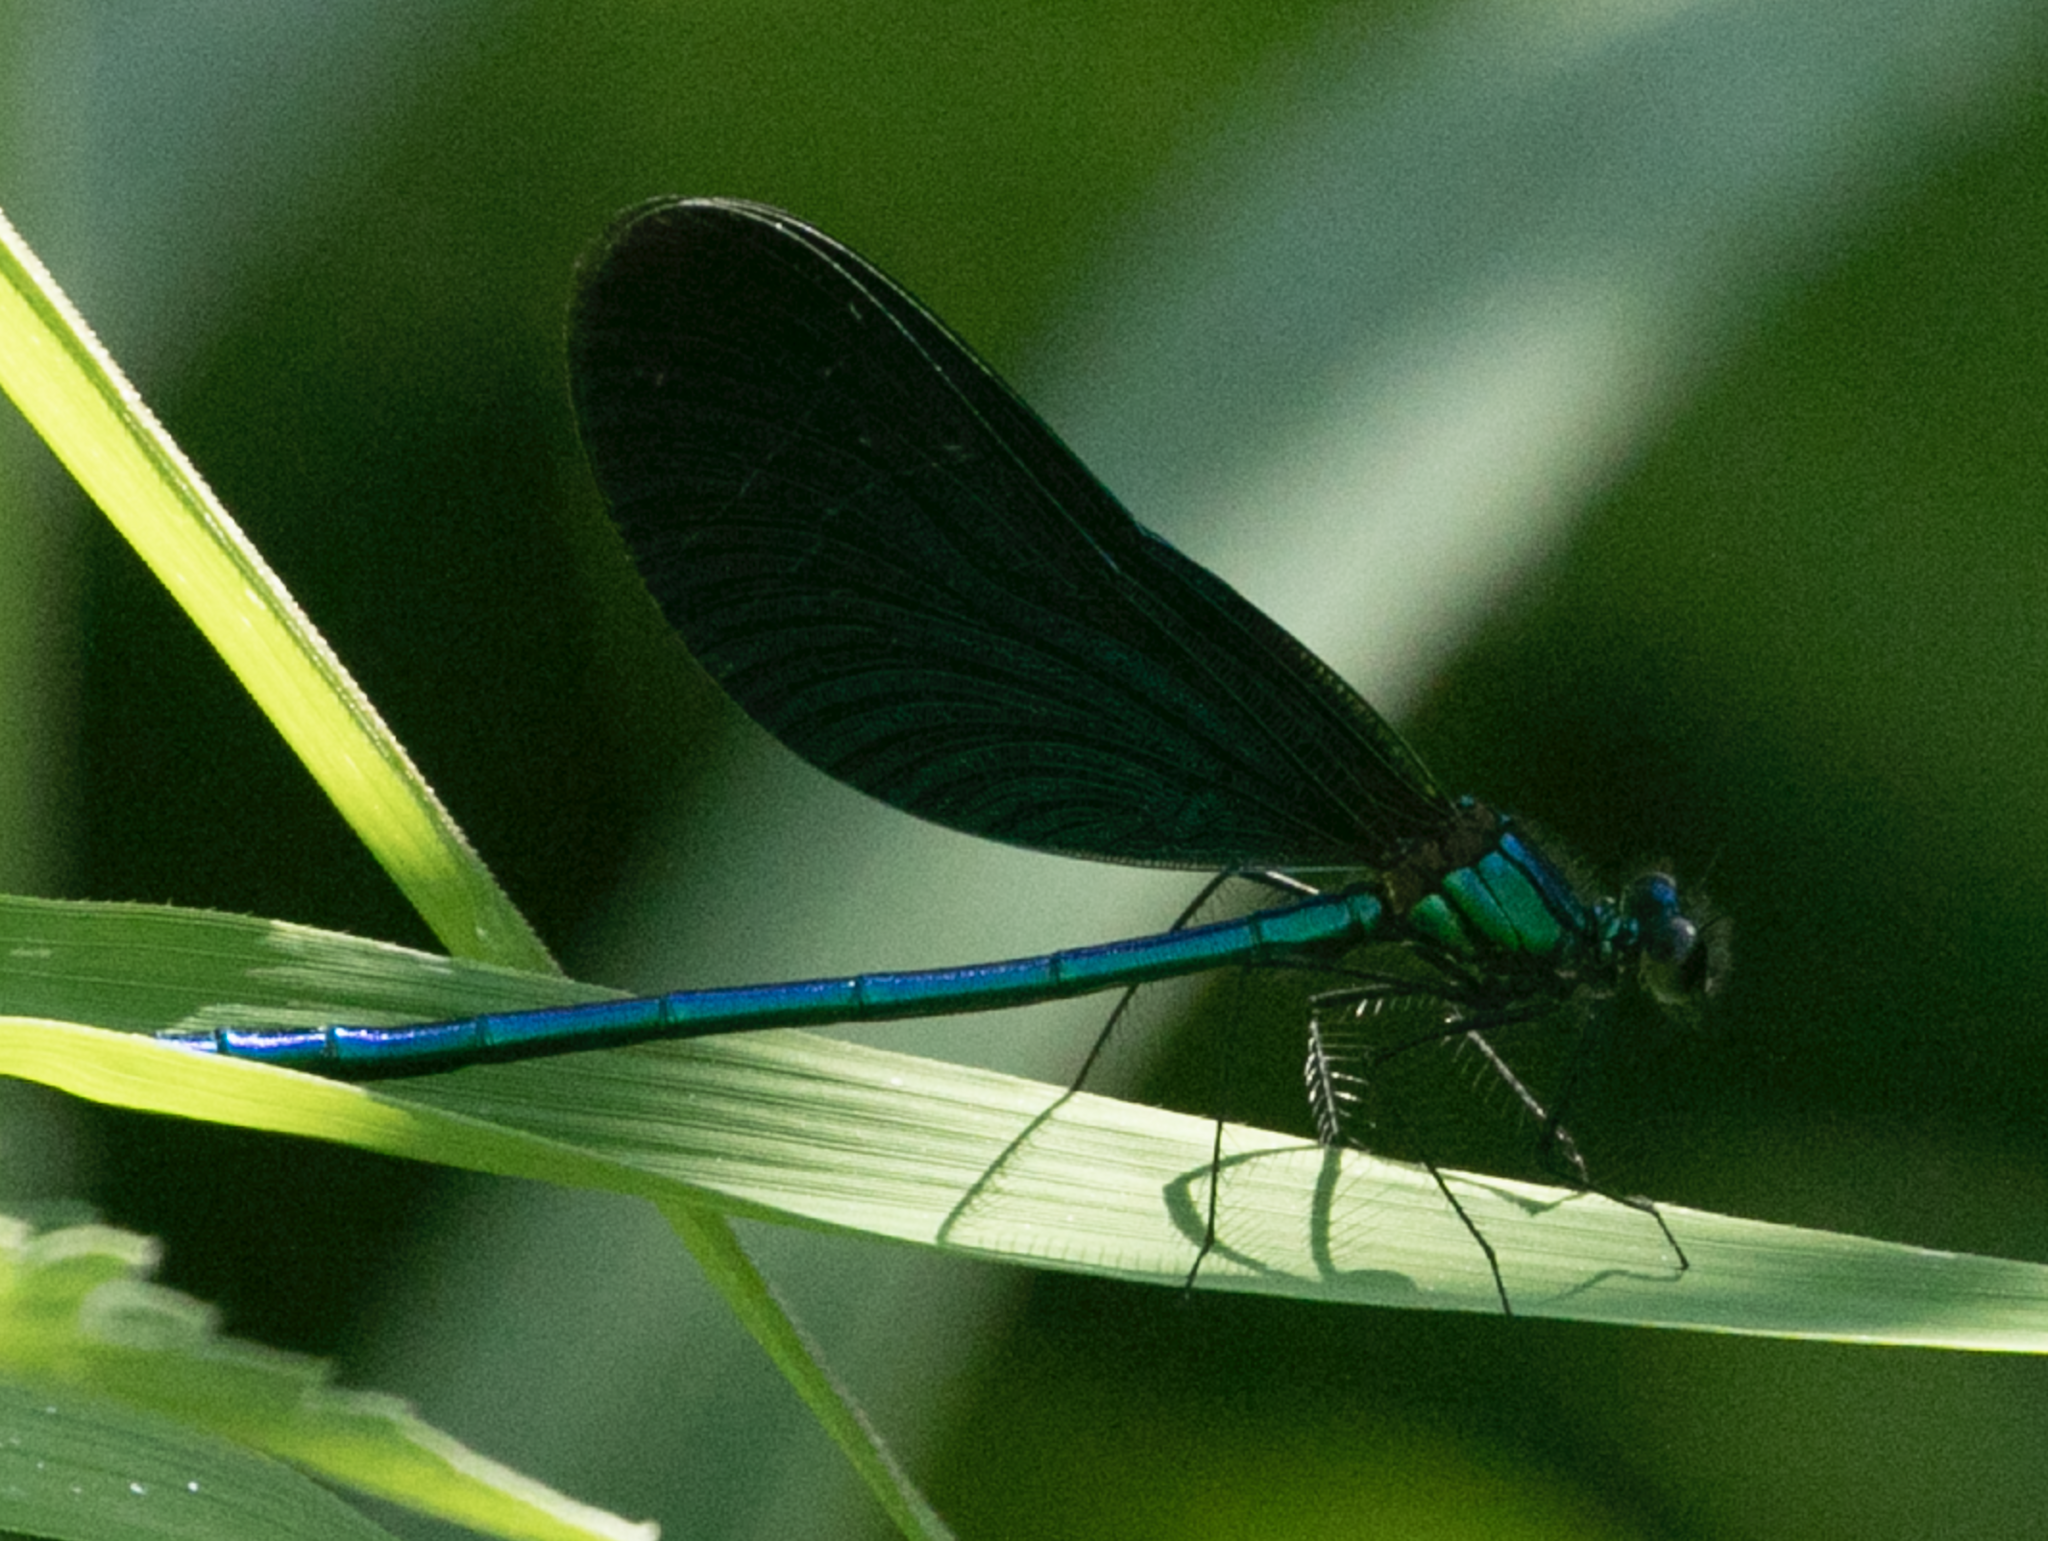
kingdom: Animalia
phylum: Arthropoda
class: Insecta
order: Odonata
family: Calopterygidae
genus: Calopteryx
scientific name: Calopteryx virgo
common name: Beautiful demoiselle
